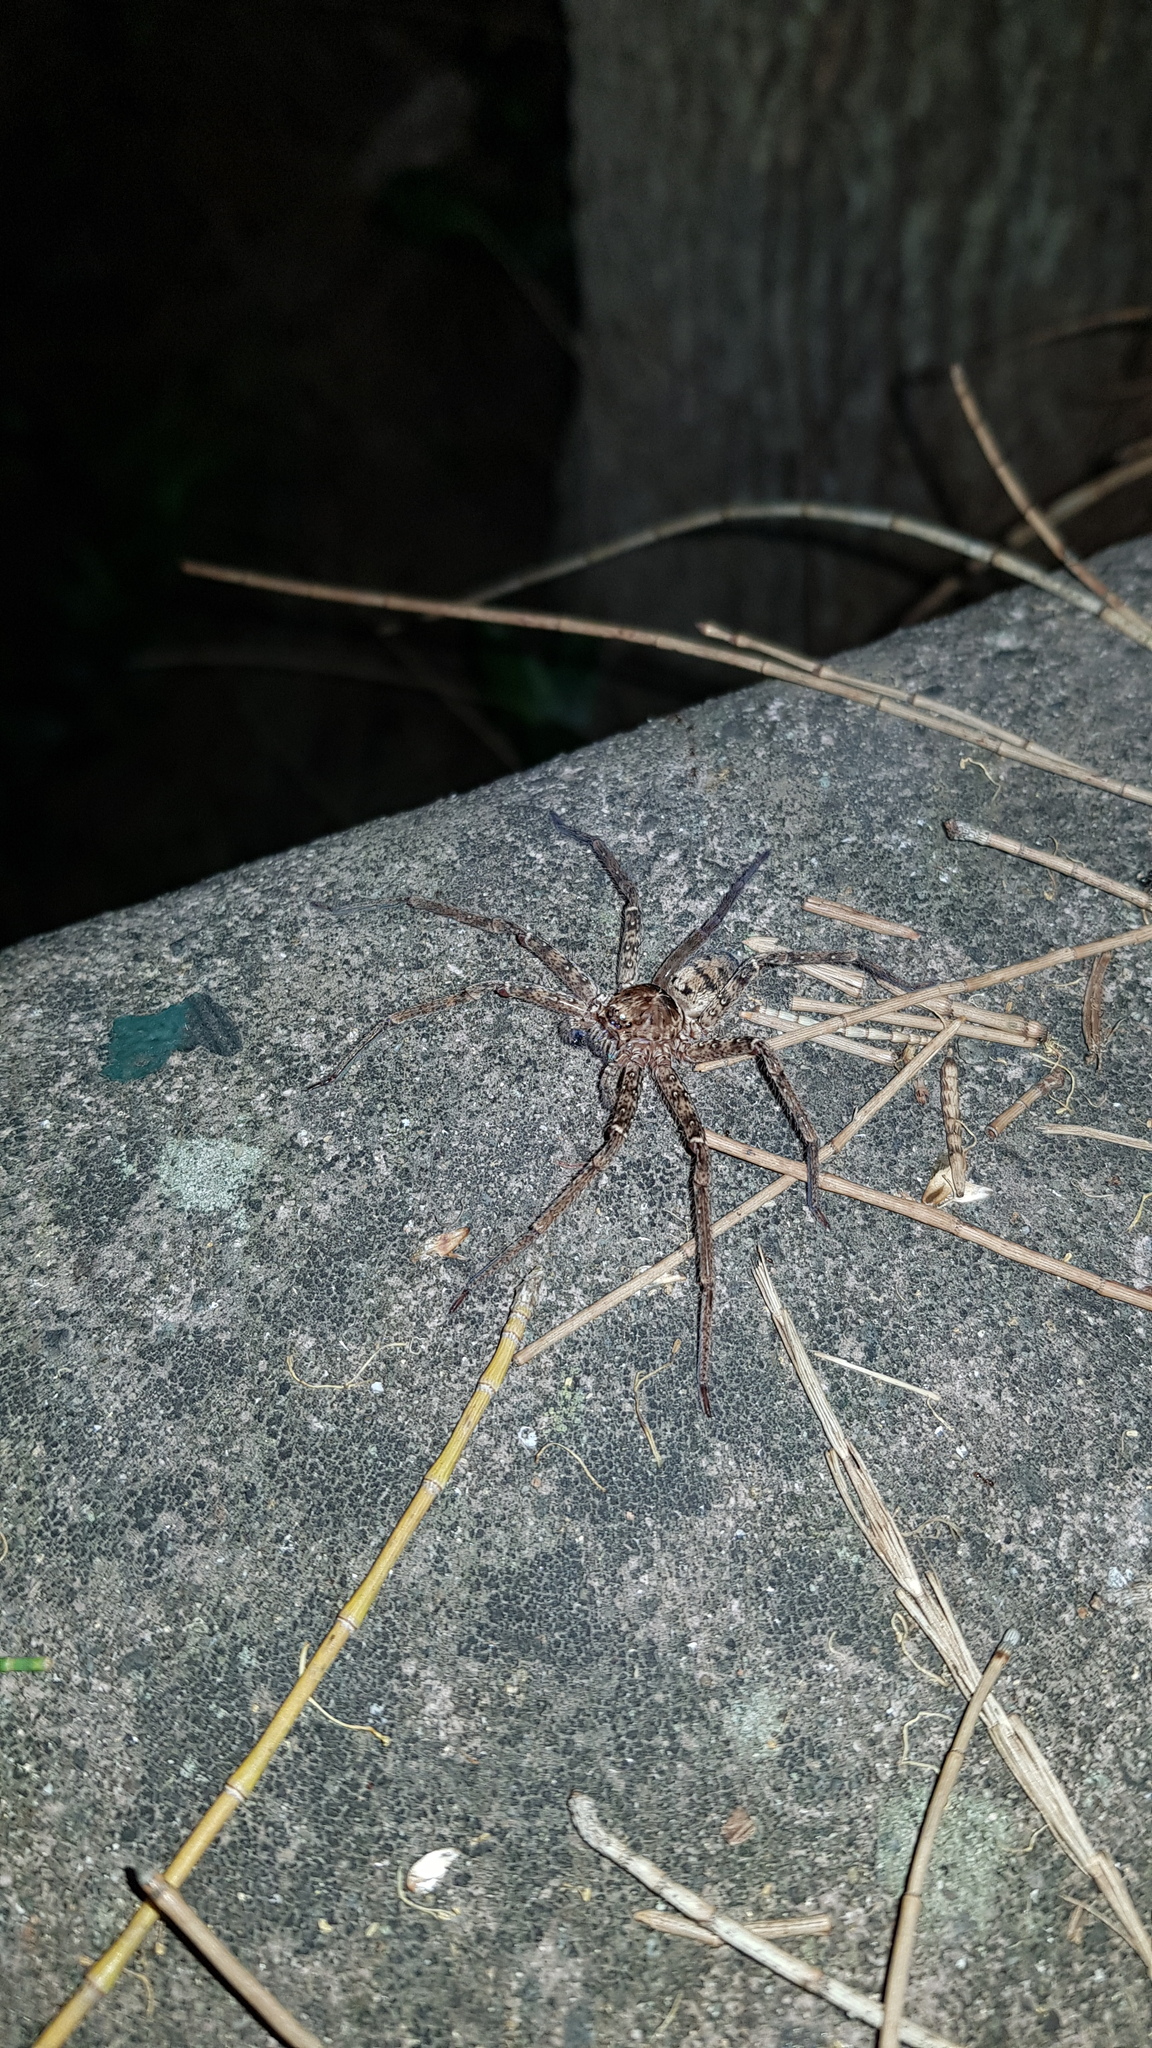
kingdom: Animalia
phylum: Arthropoda
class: Arachnida
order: Araneae
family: Sparassidae
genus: Heteropoda
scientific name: Heteropoda jugulans
